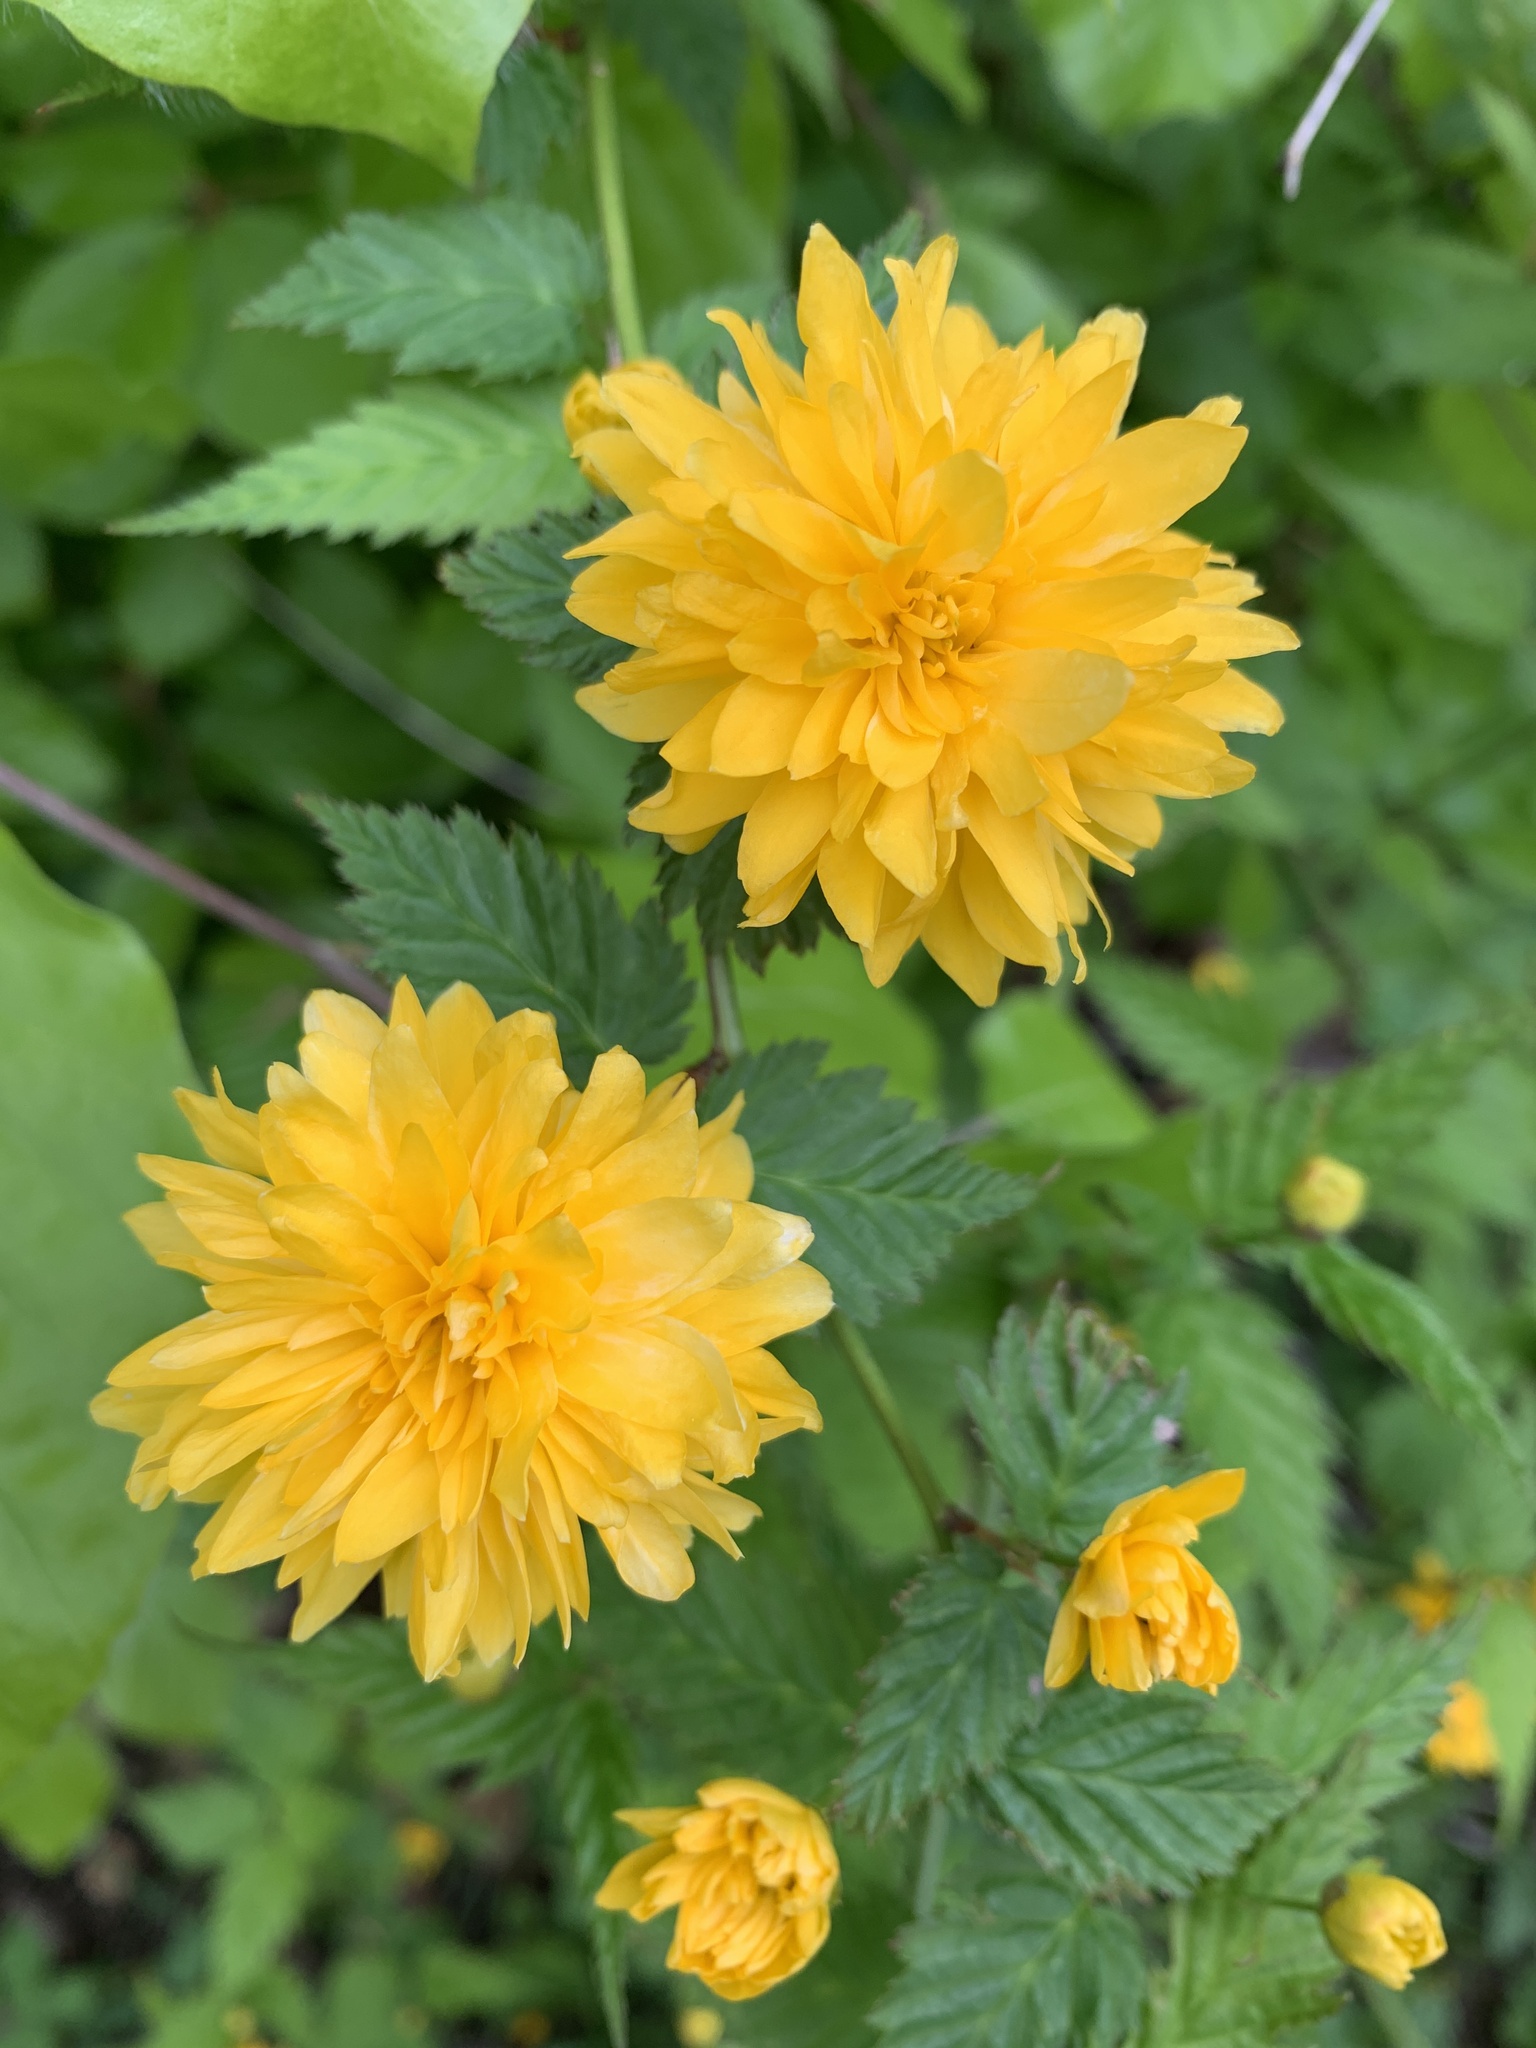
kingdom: Plantae
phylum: Tracheophyta
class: Magnoliopsida
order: Rosales
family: Rosaceae
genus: Kerria
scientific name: Kerria japonica
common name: Japanese kerria
